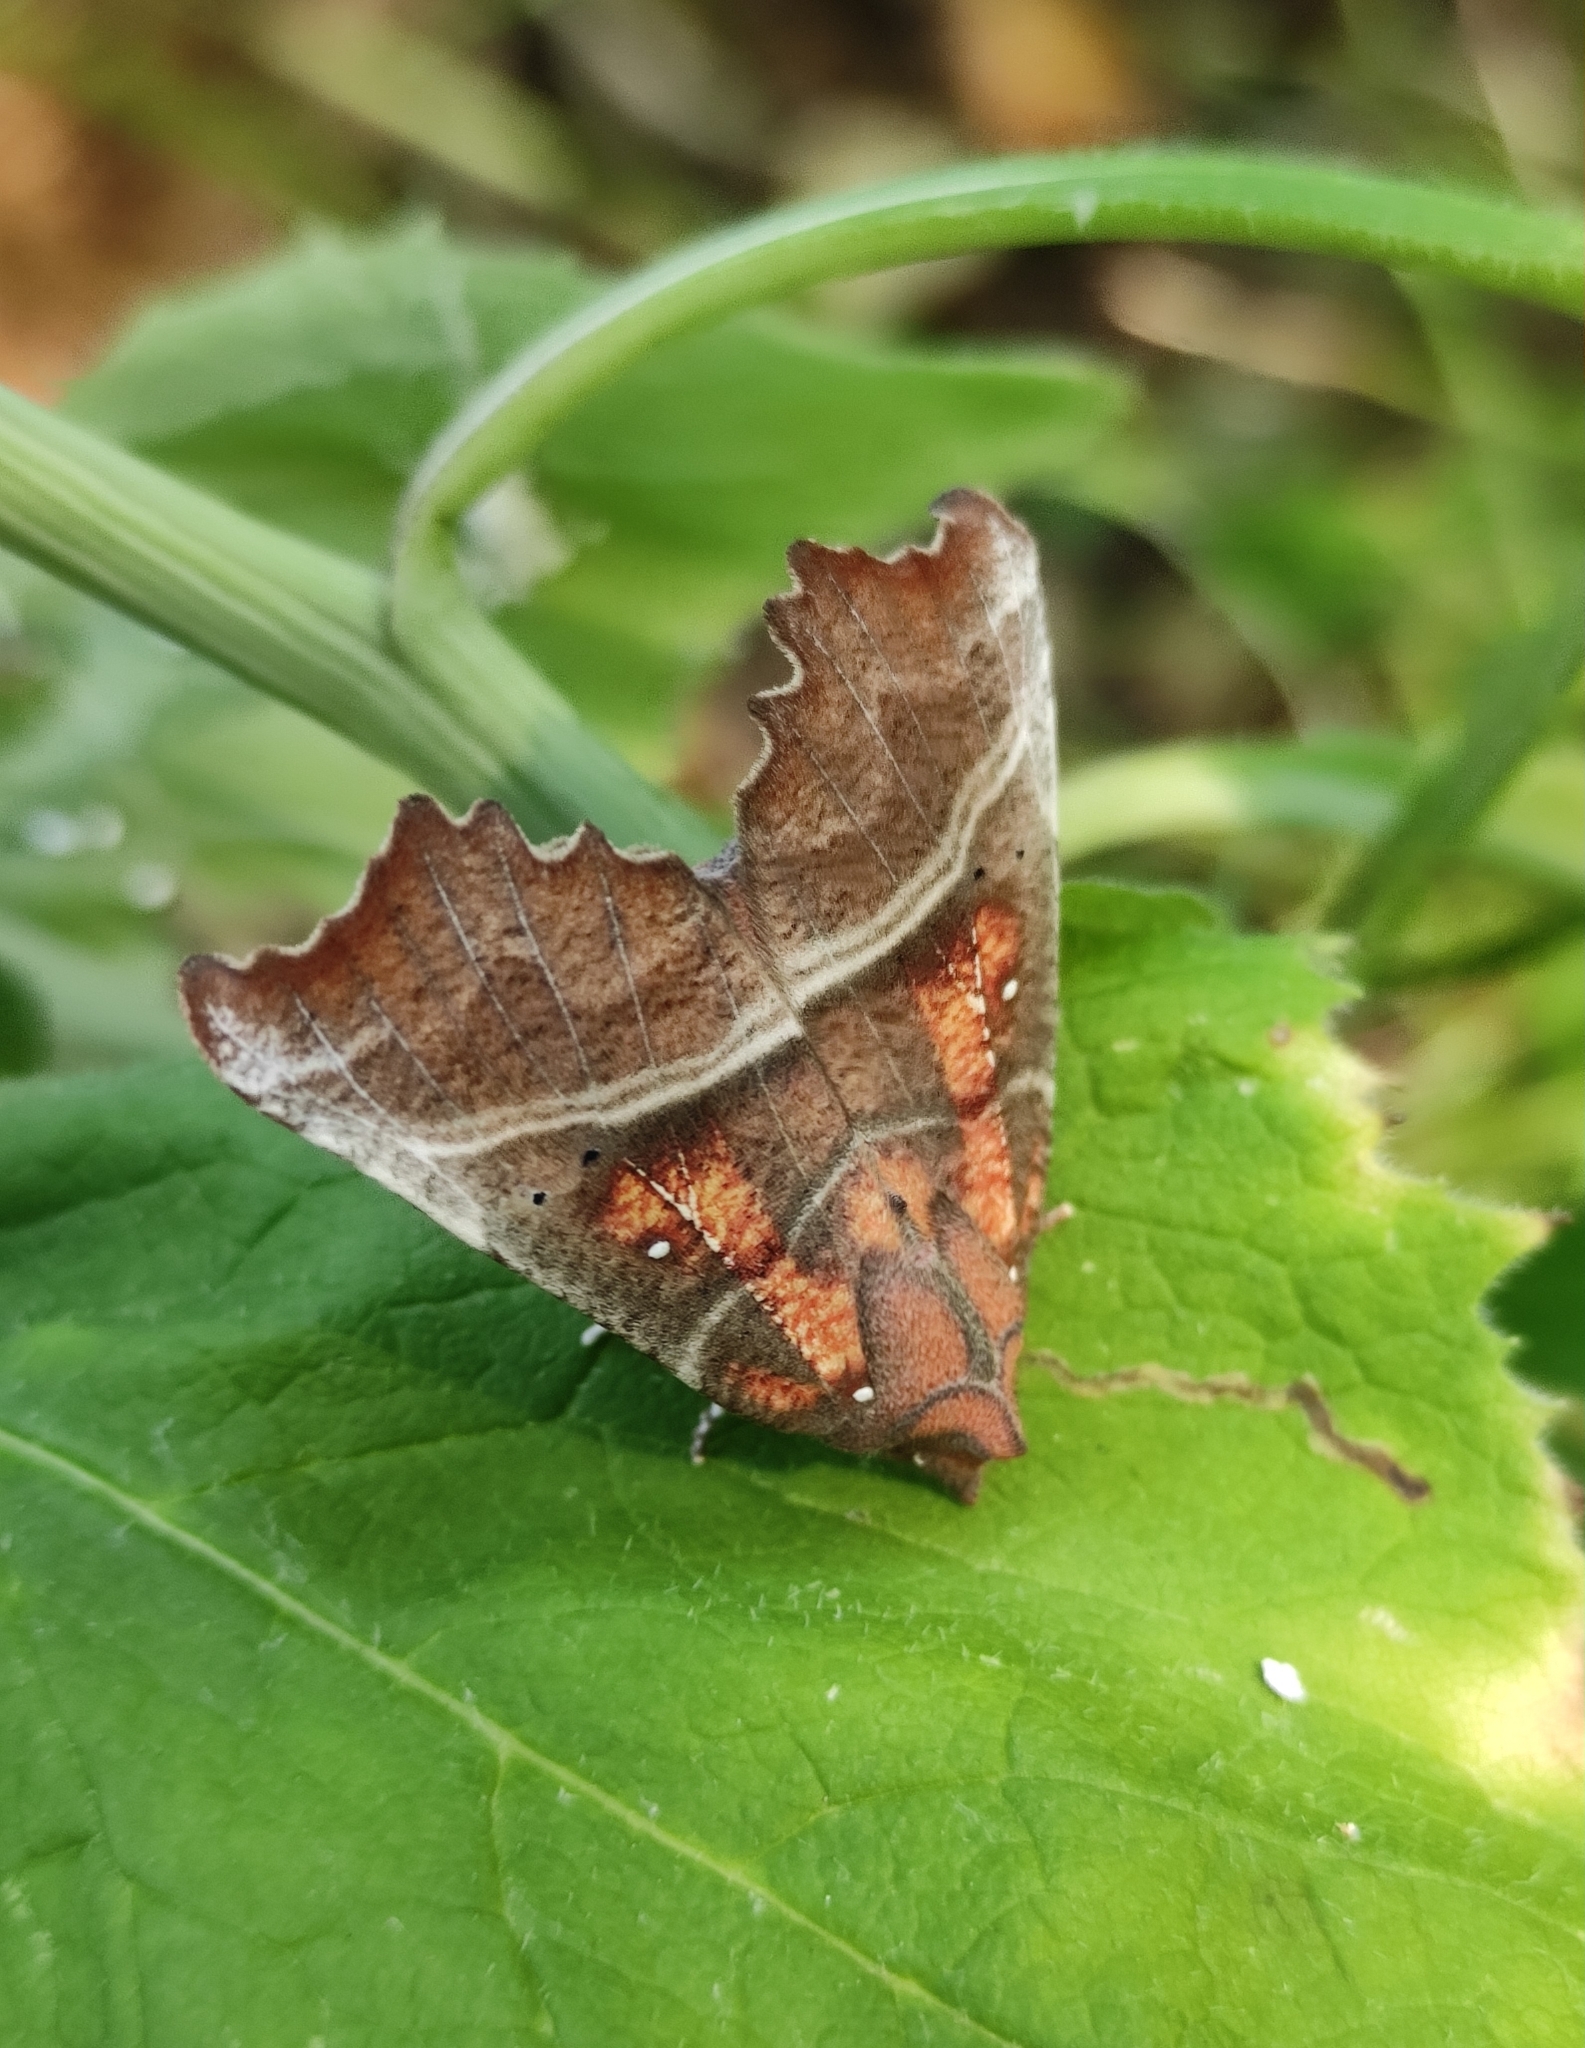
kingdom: Animalia
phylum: Arthropoda
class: Insecta
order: Lepidoptera
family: Erebidae
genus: Scoliopteryx
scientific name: Scoliopteryx libatrix
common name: Herald
